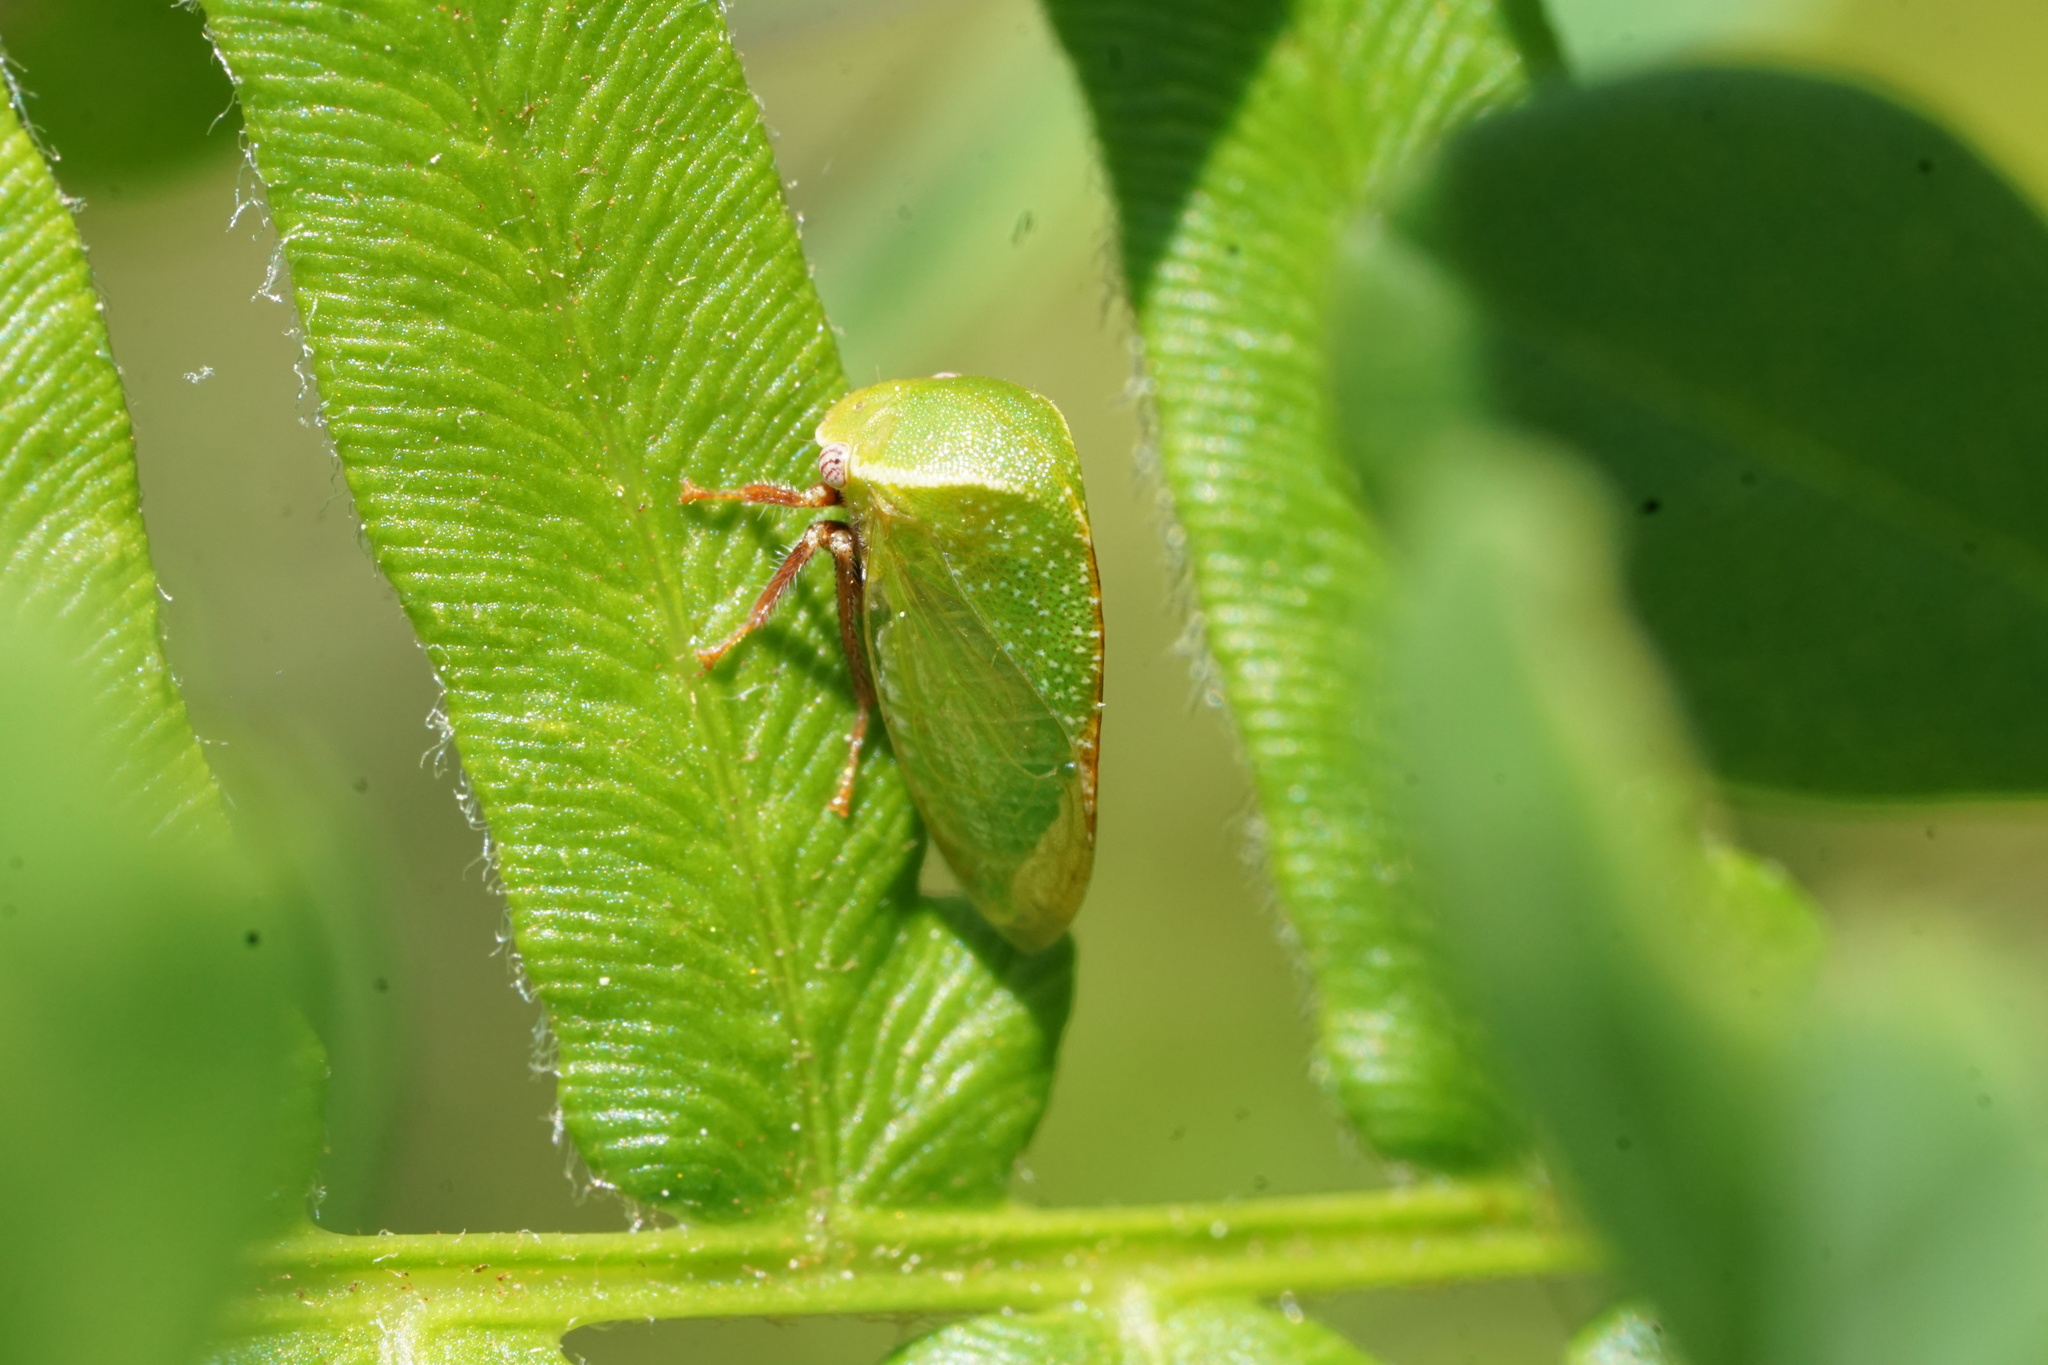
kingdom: Animalia
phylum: Arthropoda
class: Insecta
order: Hemiptera
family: Membracidae
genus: Stictocephala
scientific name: Stictocephala lutea
